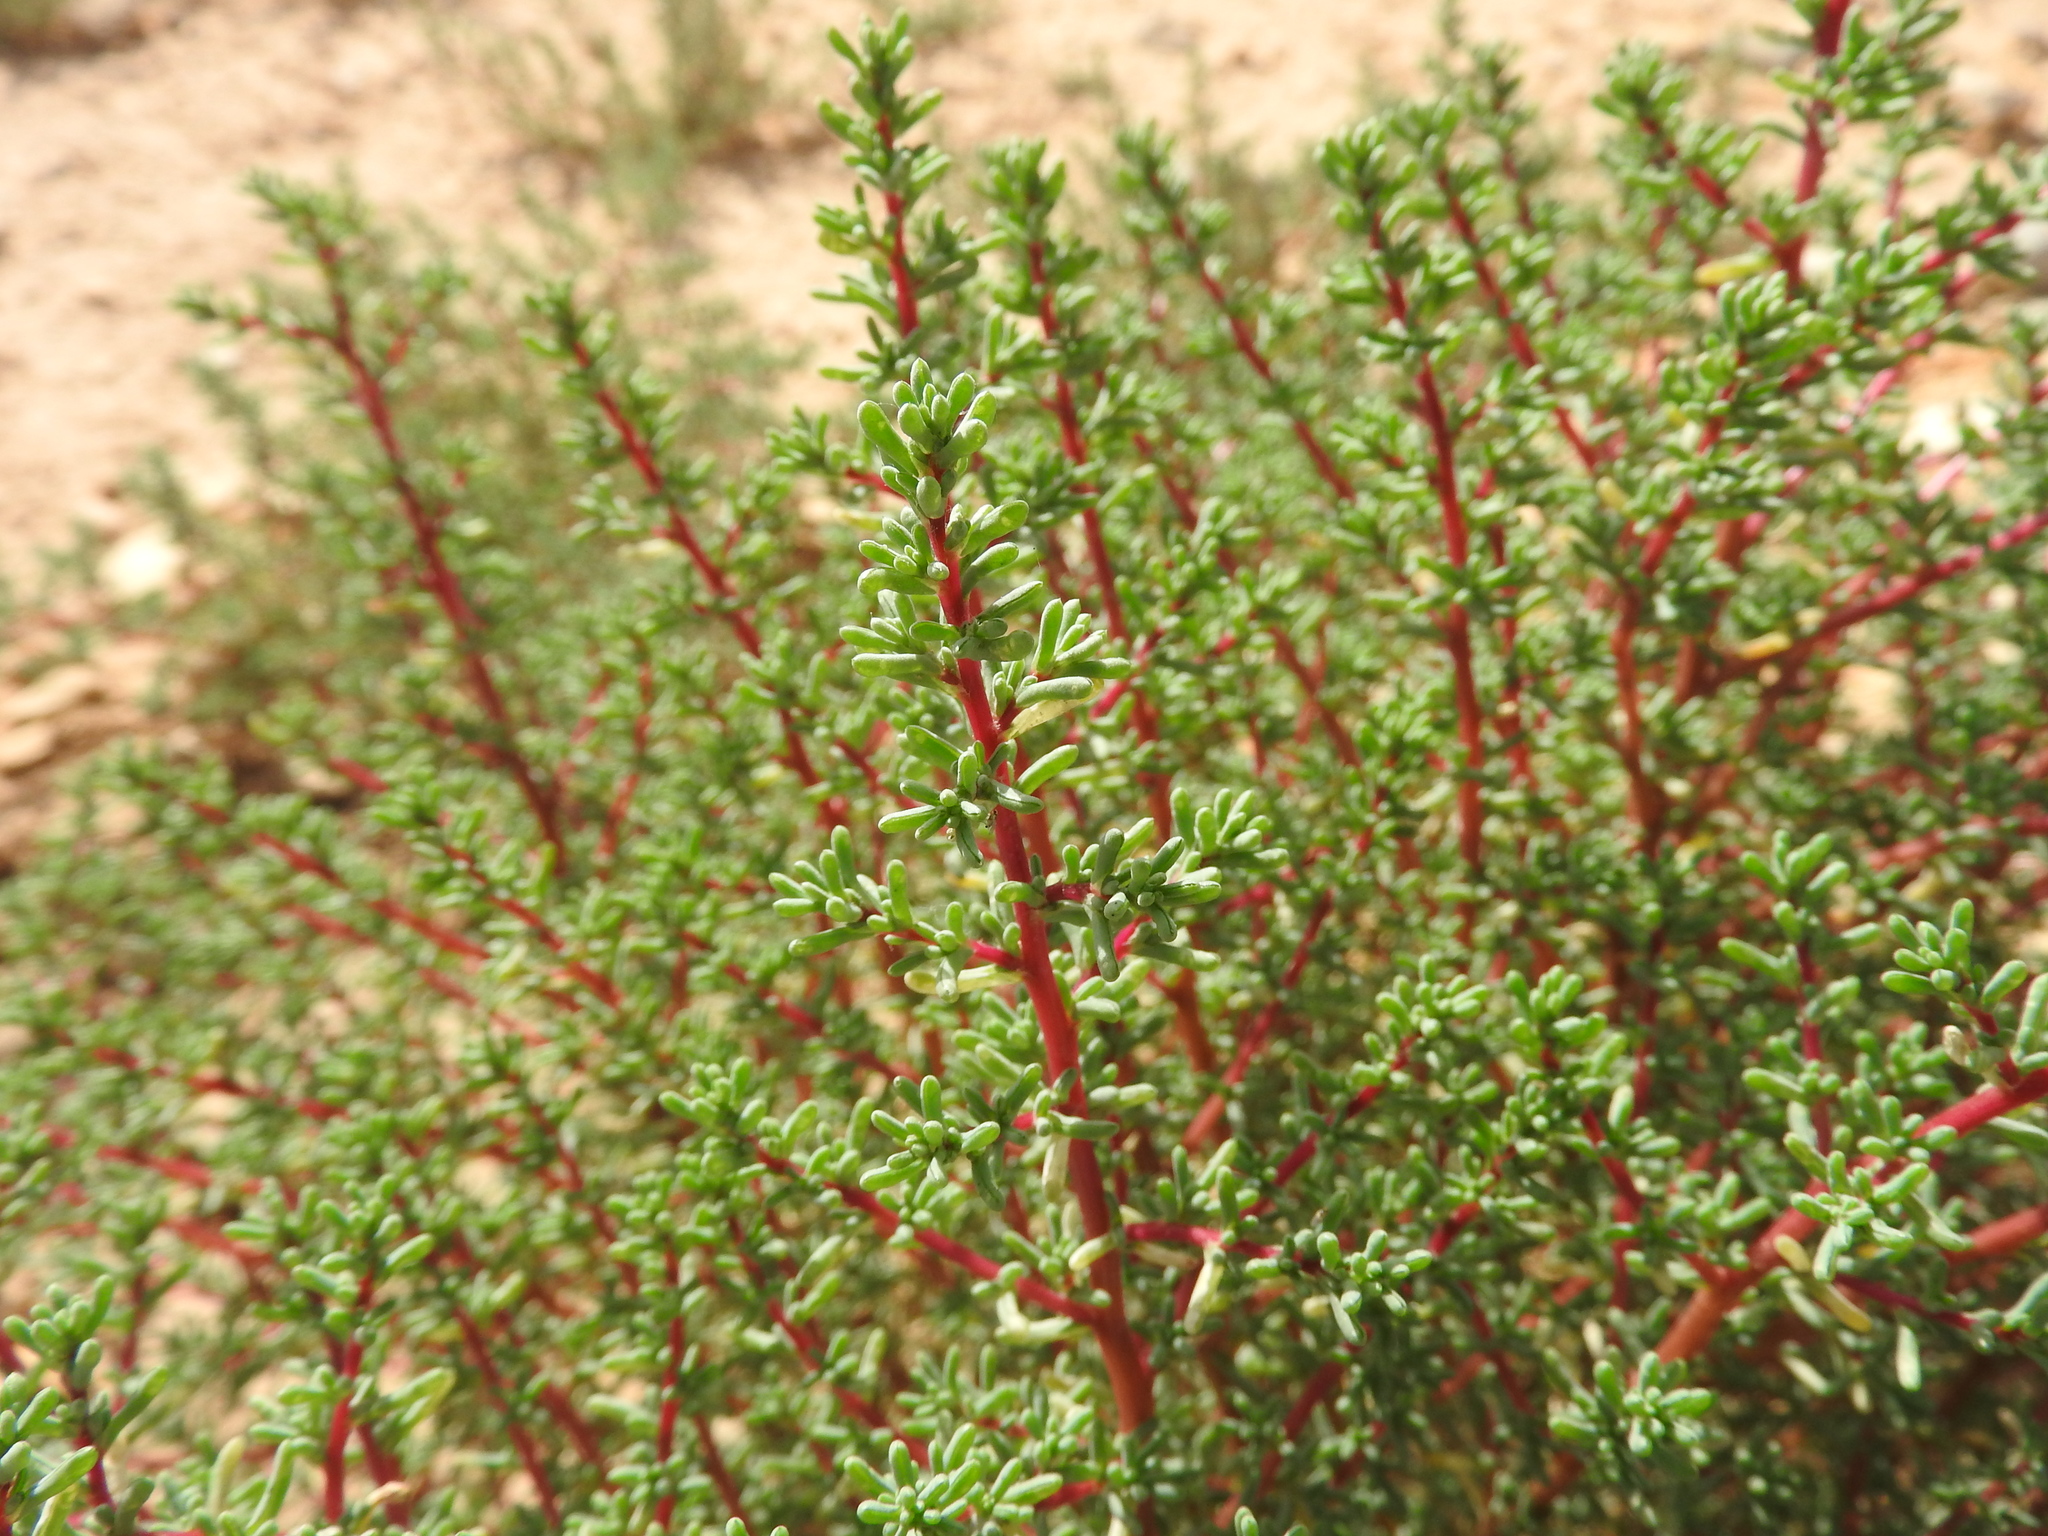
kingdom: Plantae
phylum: Tracheophyta
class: Magnoliopsida
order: Caryophyllales
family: Amaranthaceae
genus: Halogeton
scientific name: Halogeton sativus
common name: Barilla
